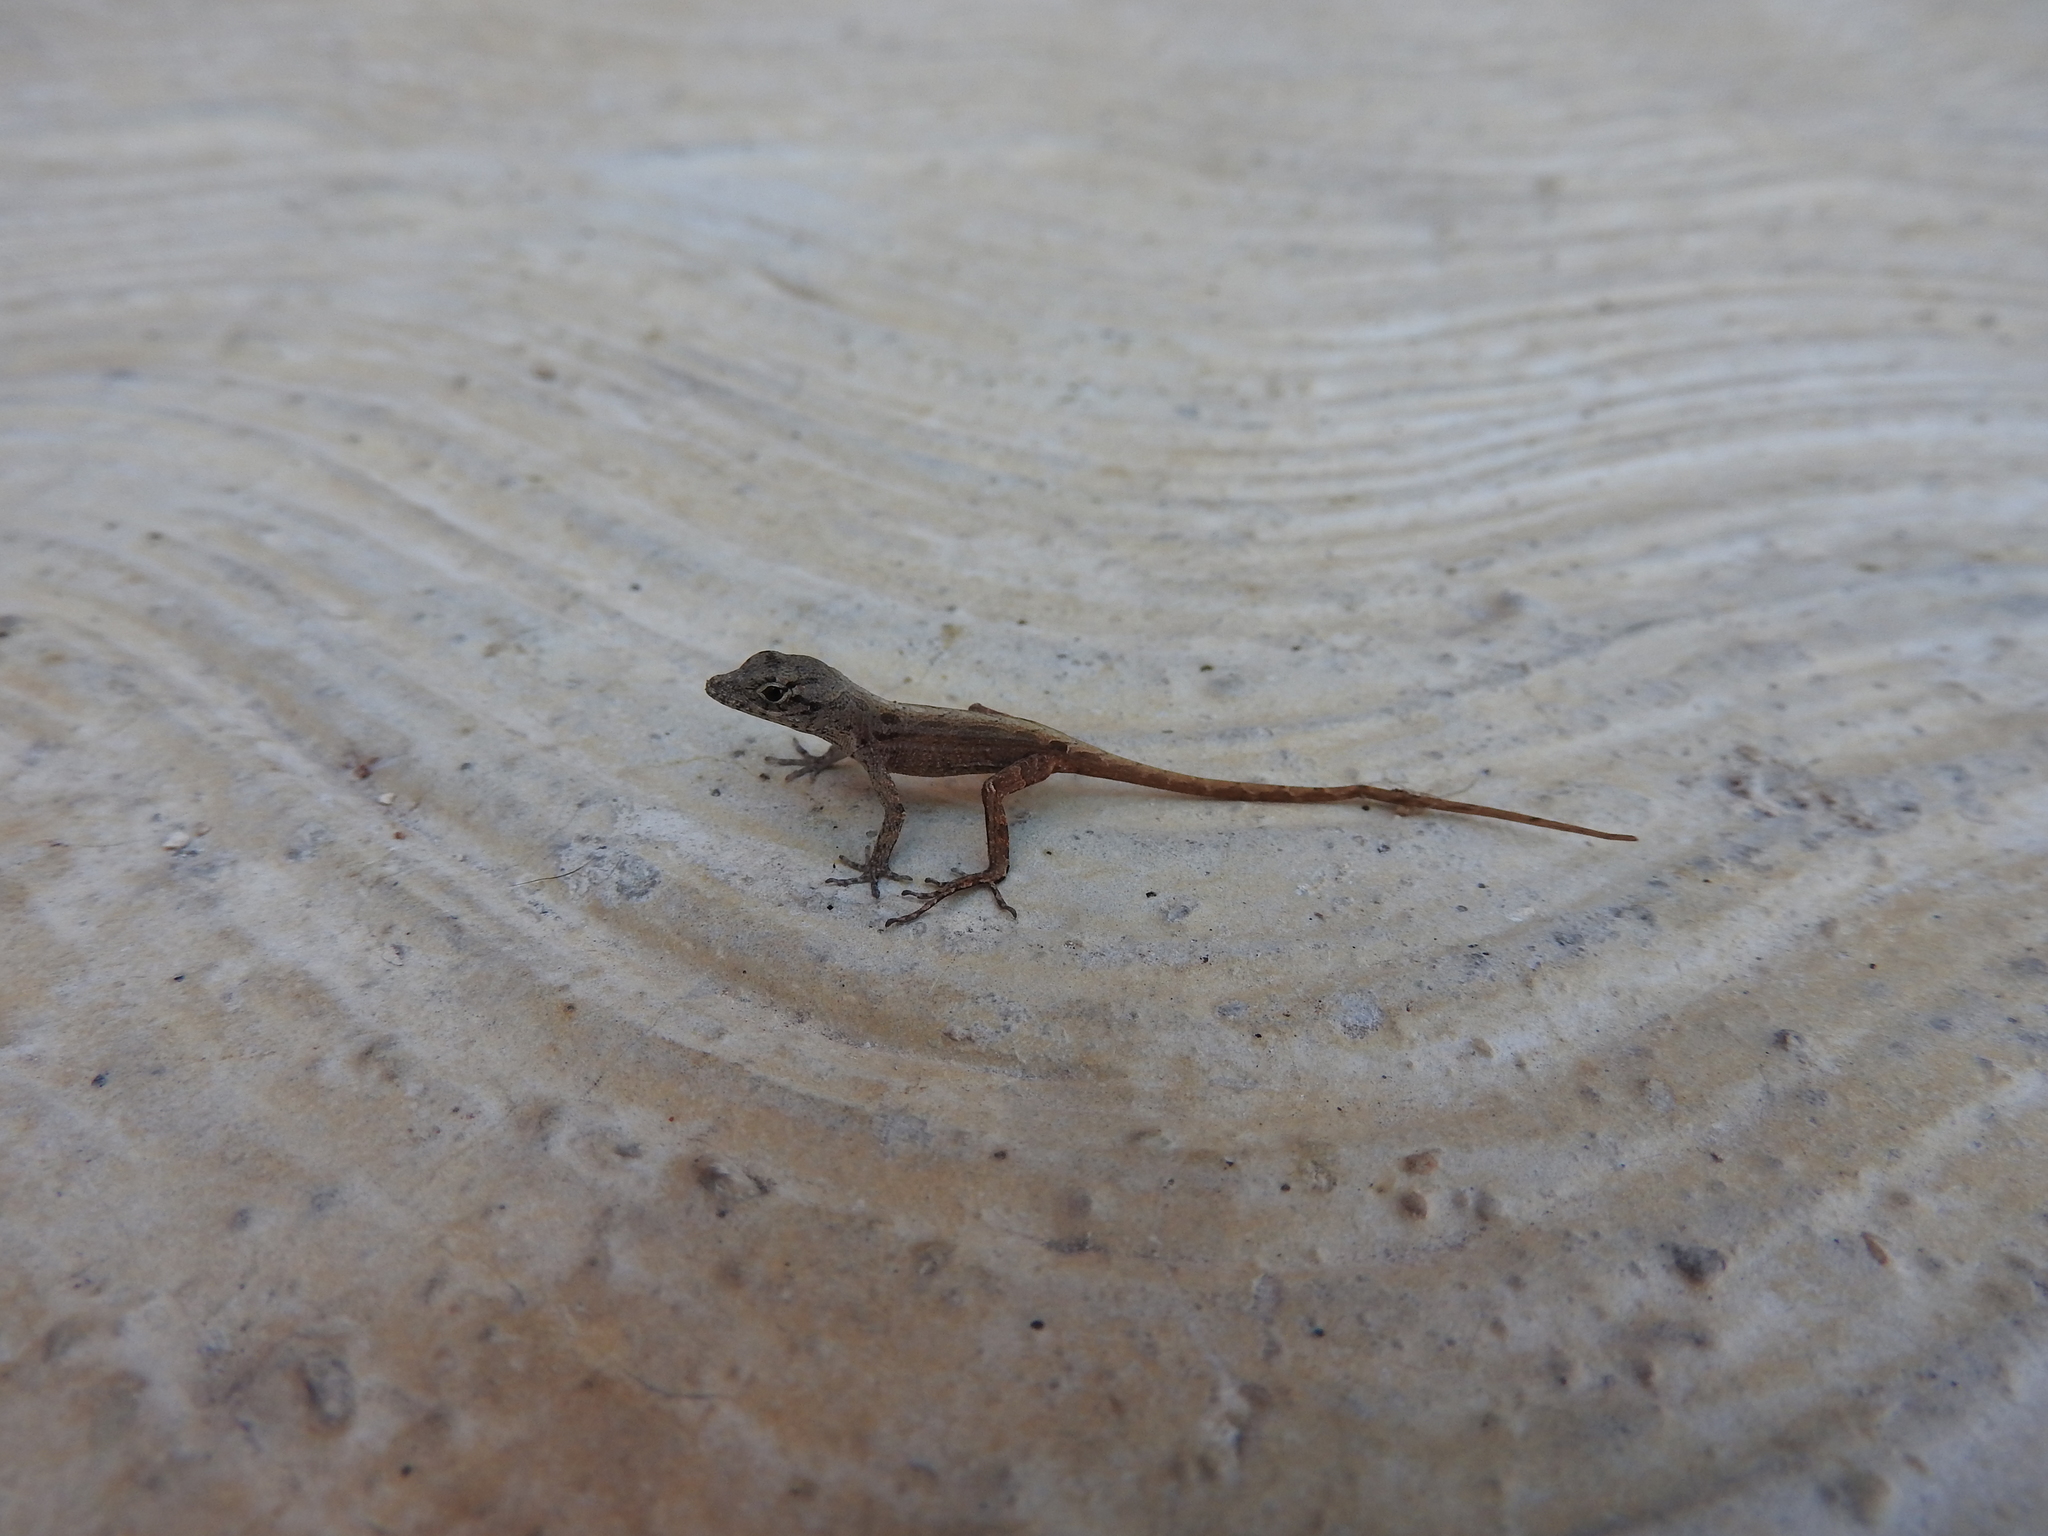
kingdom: Animalia
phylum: Chordata
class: Squamata
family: Dactyloidae
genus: Anolis
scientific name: Anolis sagrei
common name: Brown anole
